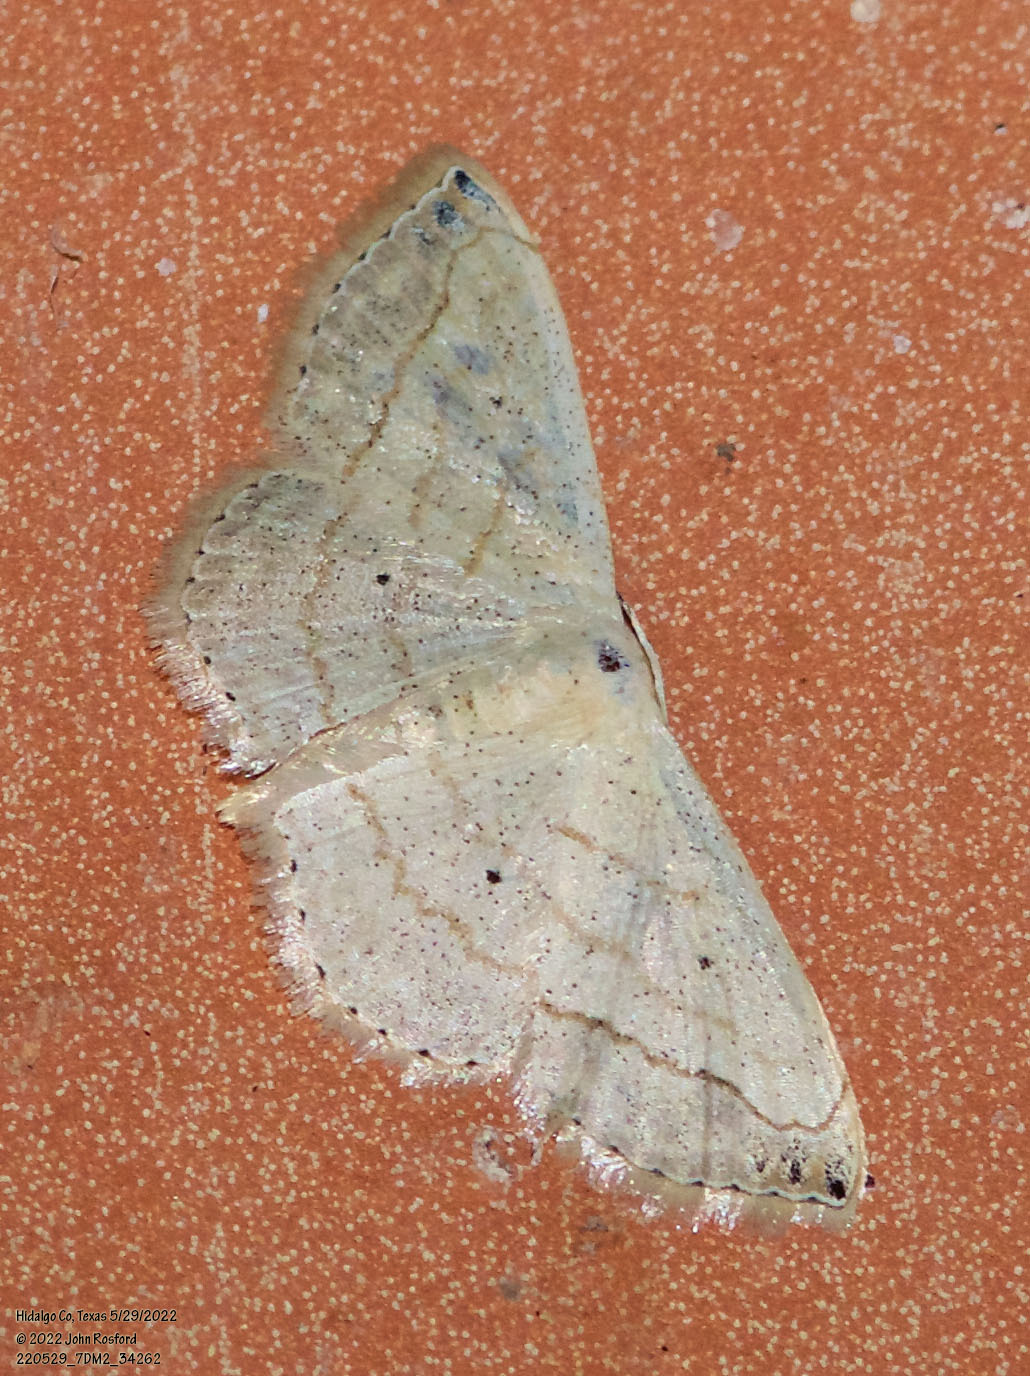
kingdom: Animalia
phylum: Arthropoda
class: Insecta
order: Lepidoptera
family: Geometridae
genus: Scopula
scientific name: Scopula umbilicata
